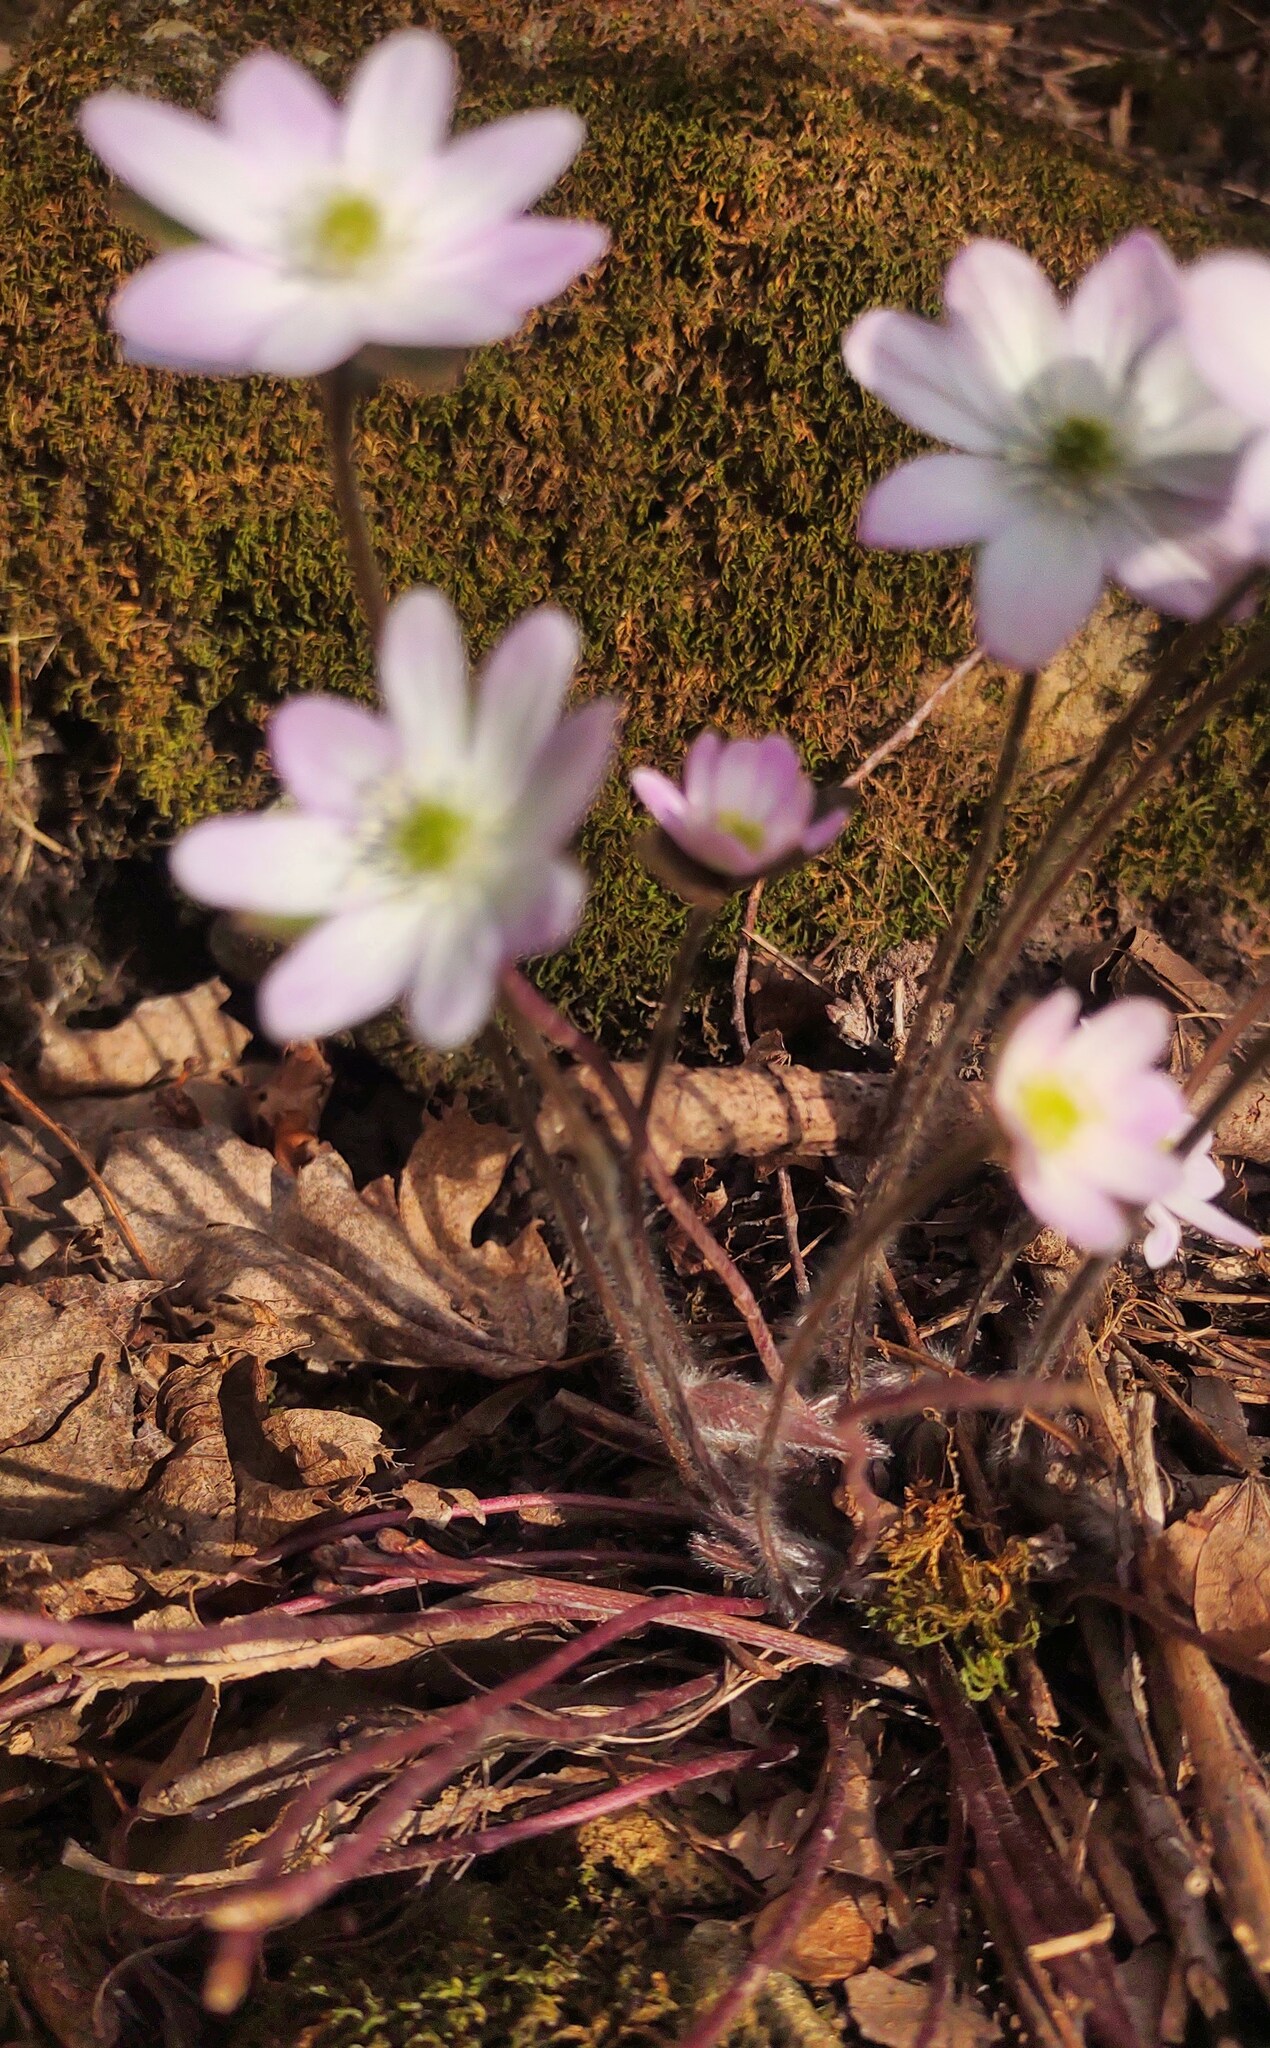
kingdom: Plantae
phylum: Tracheophyta
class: Magnoliopsida
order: Ranunculales
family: Ranunculaceae
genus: Hepatica
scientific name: Hepatica acutiloba
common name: Sharp-lobed hepatica
